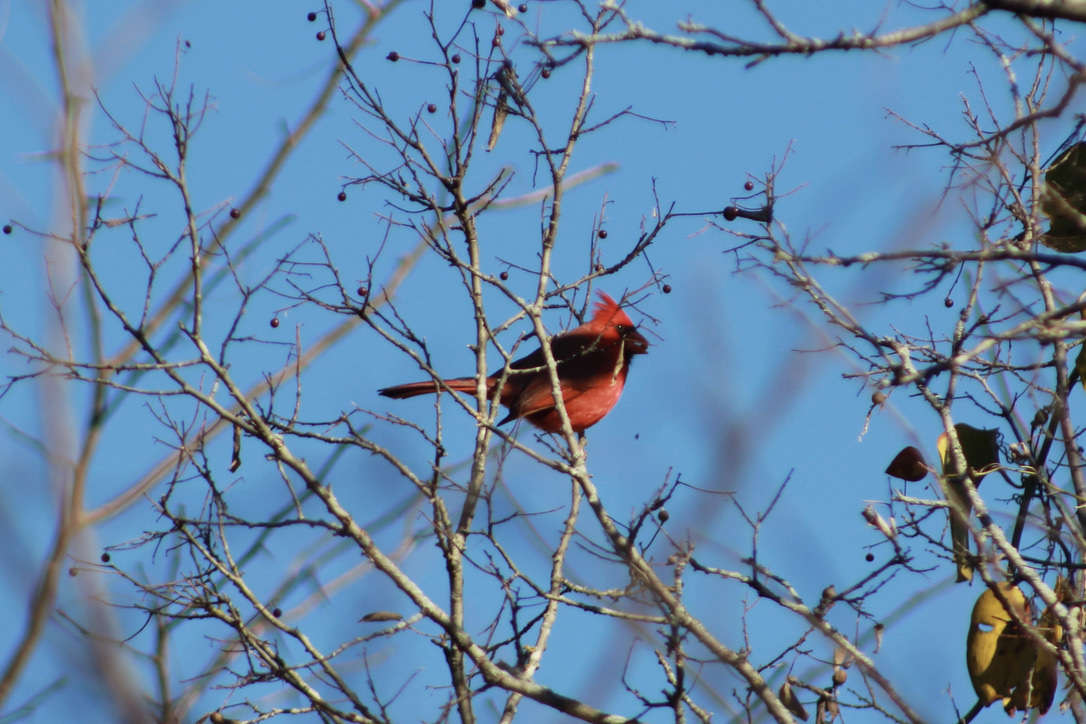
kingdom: Animalia
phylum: Chordata
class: Aves
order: Passeriformes
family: Cardinalidae
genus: Cardinalis
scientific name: Cardinalis cardinalis
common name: Northern cardinal
